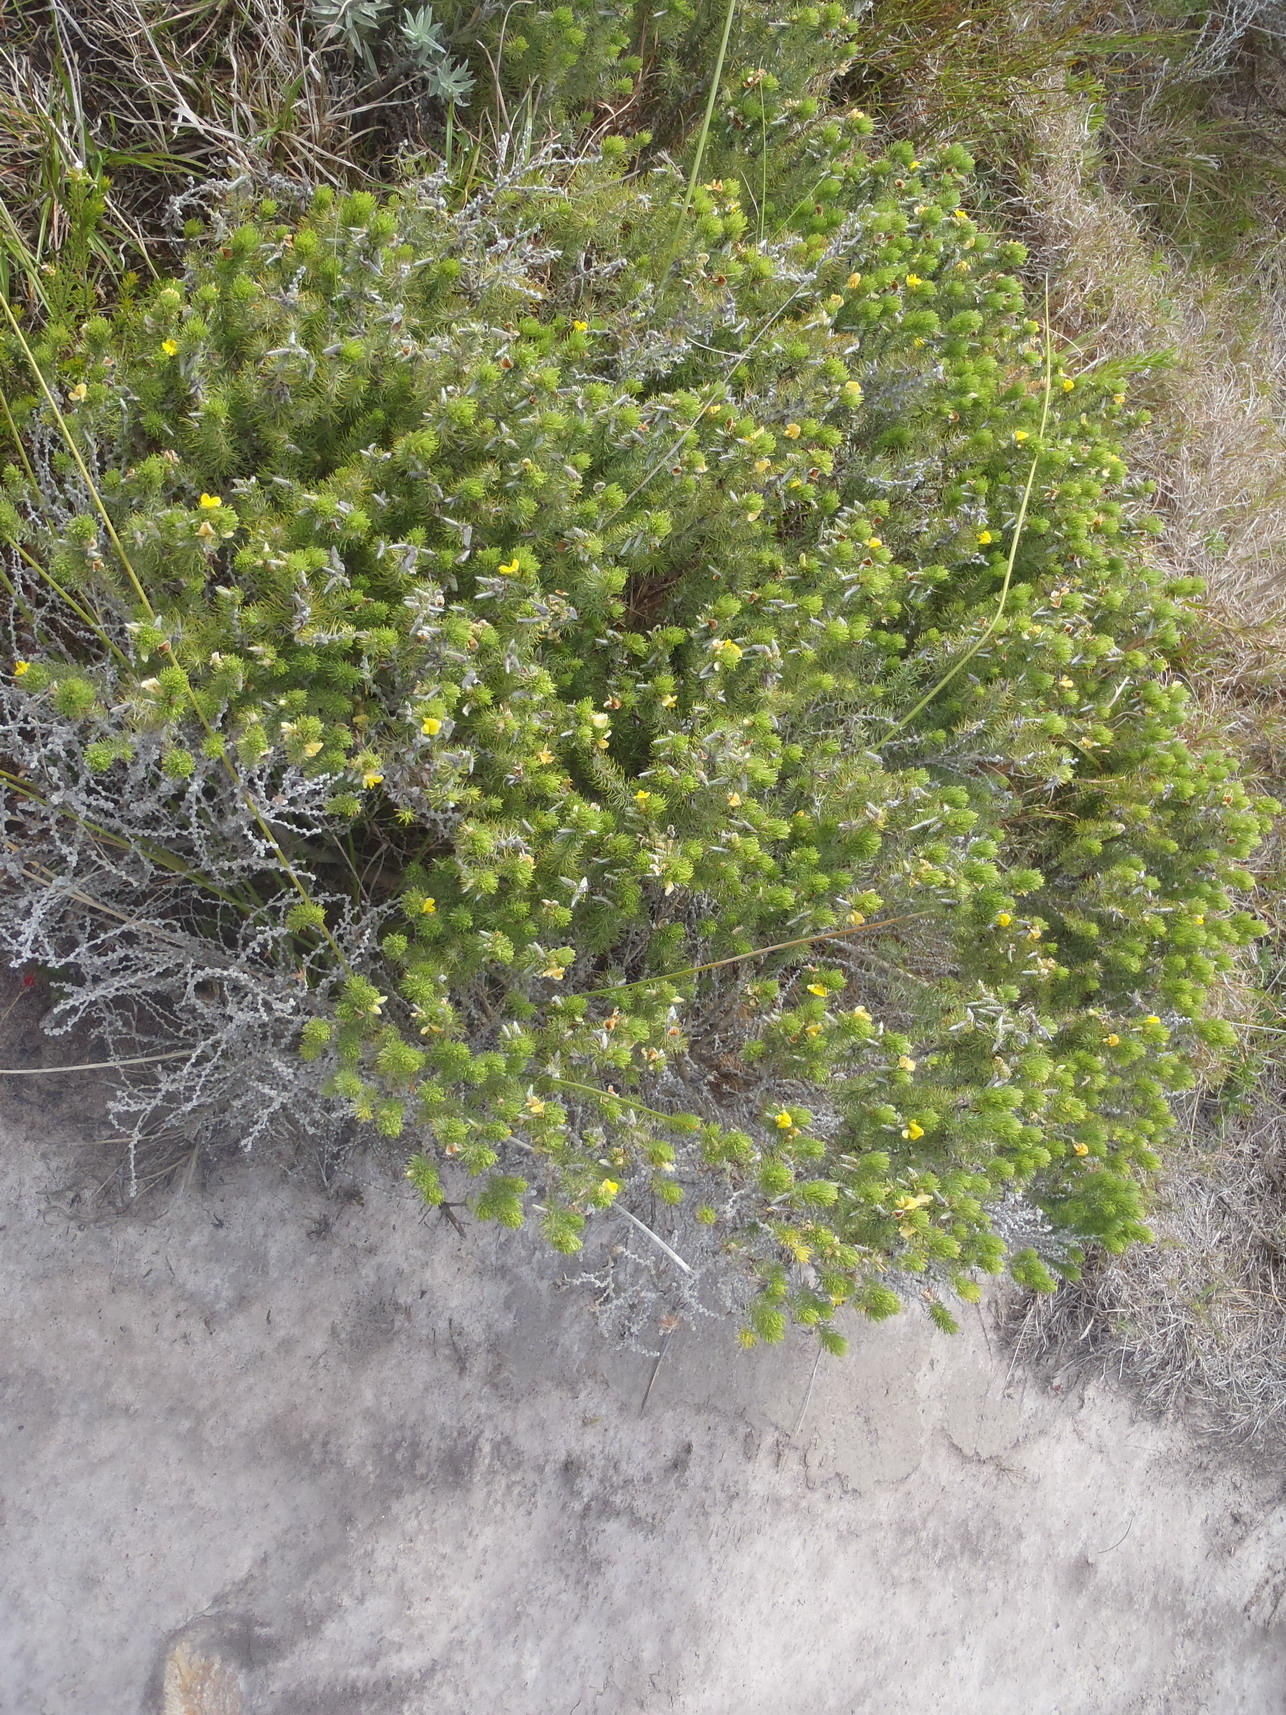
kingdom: Plantae
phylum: Tracheophyta
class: Magnoliopsida
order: Fabales
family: Fabaceae
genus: Aspalathus
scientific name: Aspalathus setacea
